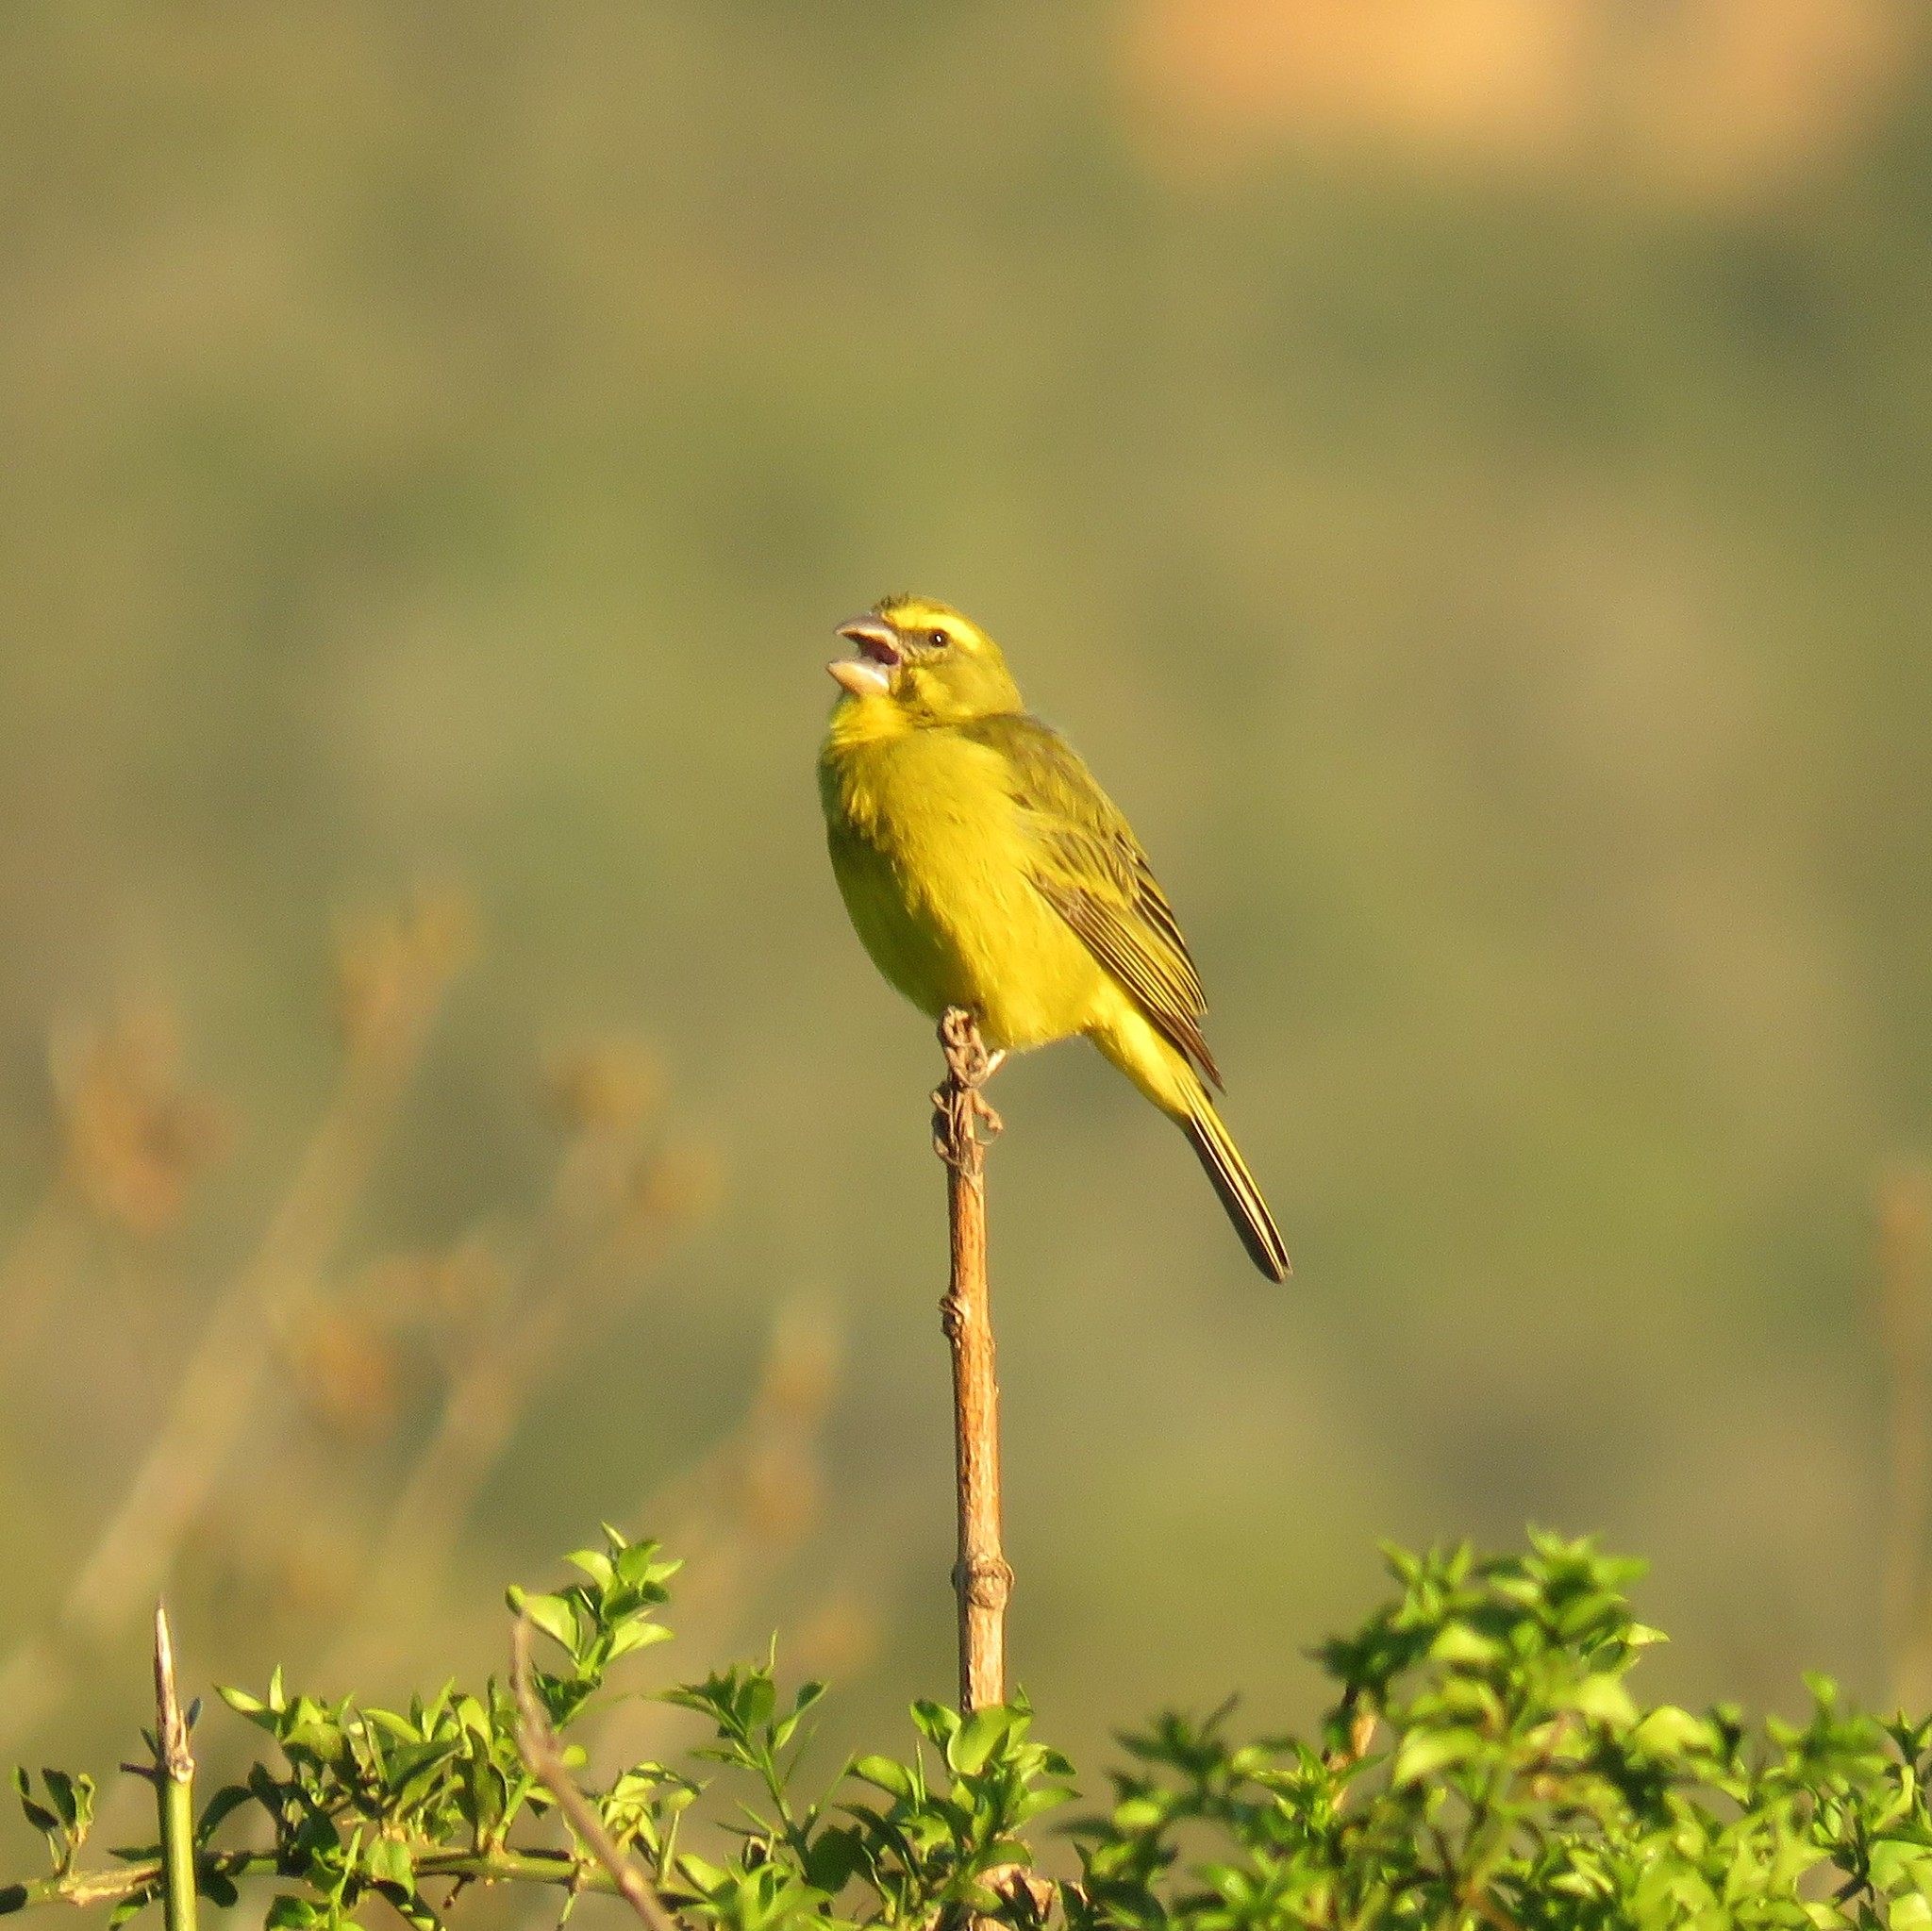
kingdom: Animalia
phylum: Chordata
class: Aves
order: Passeriformes
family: Fringillidae
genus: Crithagra
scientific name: Crithagra sulphurata
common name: Brimstone canary
